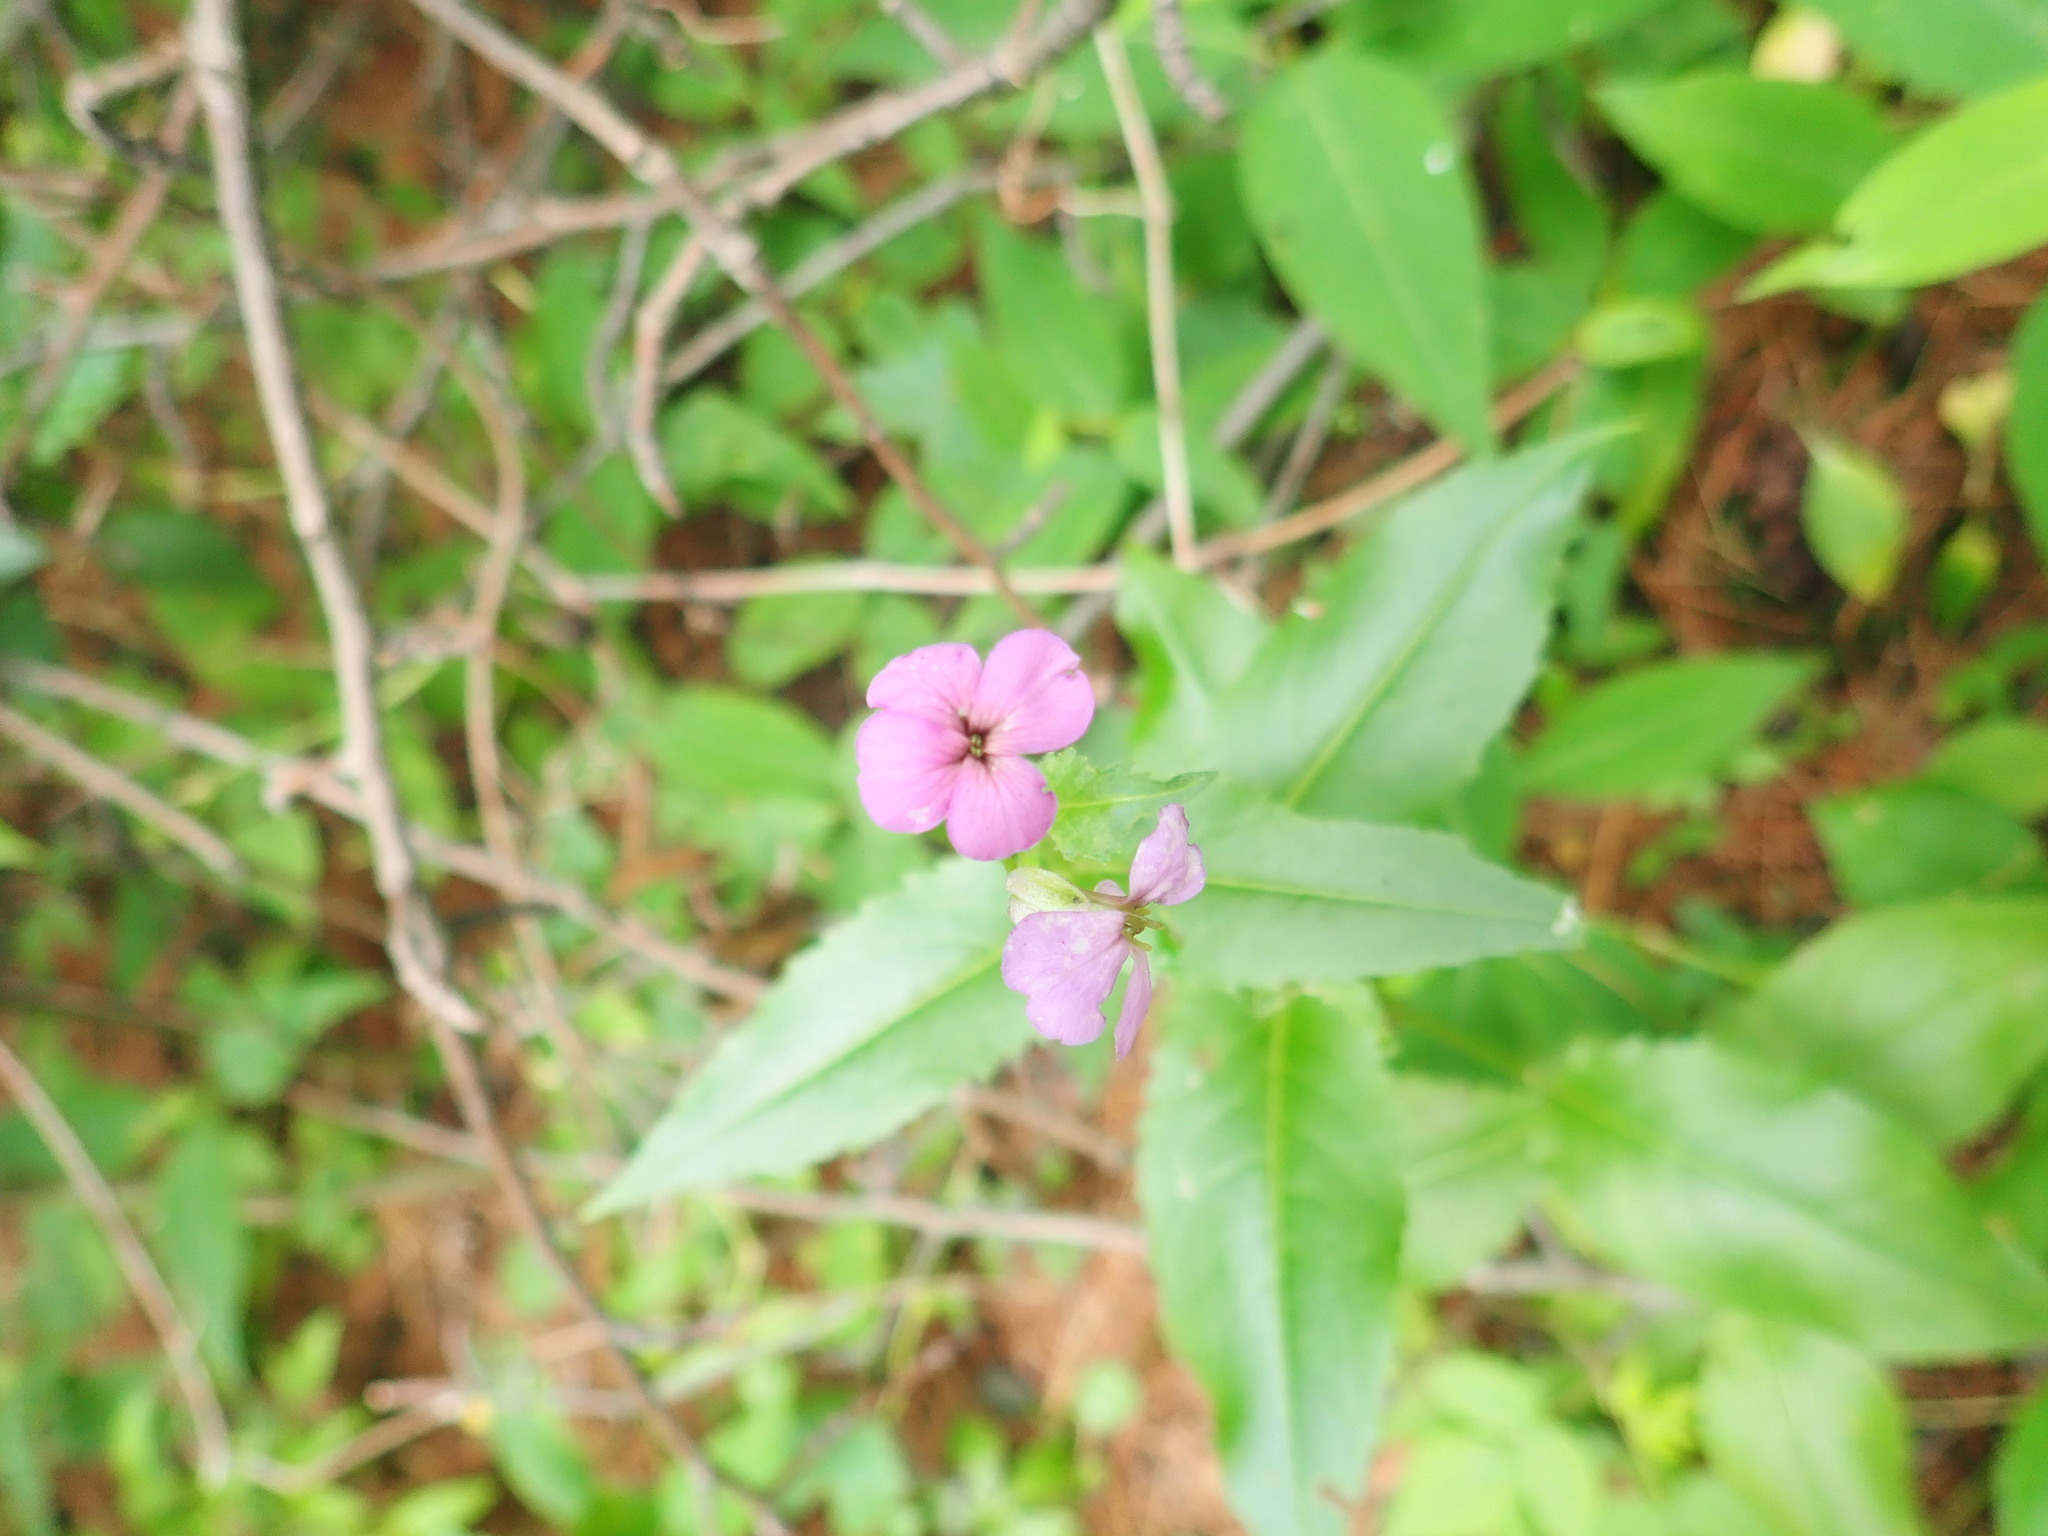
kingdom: Plantae
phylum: Tracheophyta
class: Magnoliopsida
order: Brassicales
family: Brassicaceae
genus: Hesperis
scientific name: Hesperis matronalis
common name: Dame's-violet
